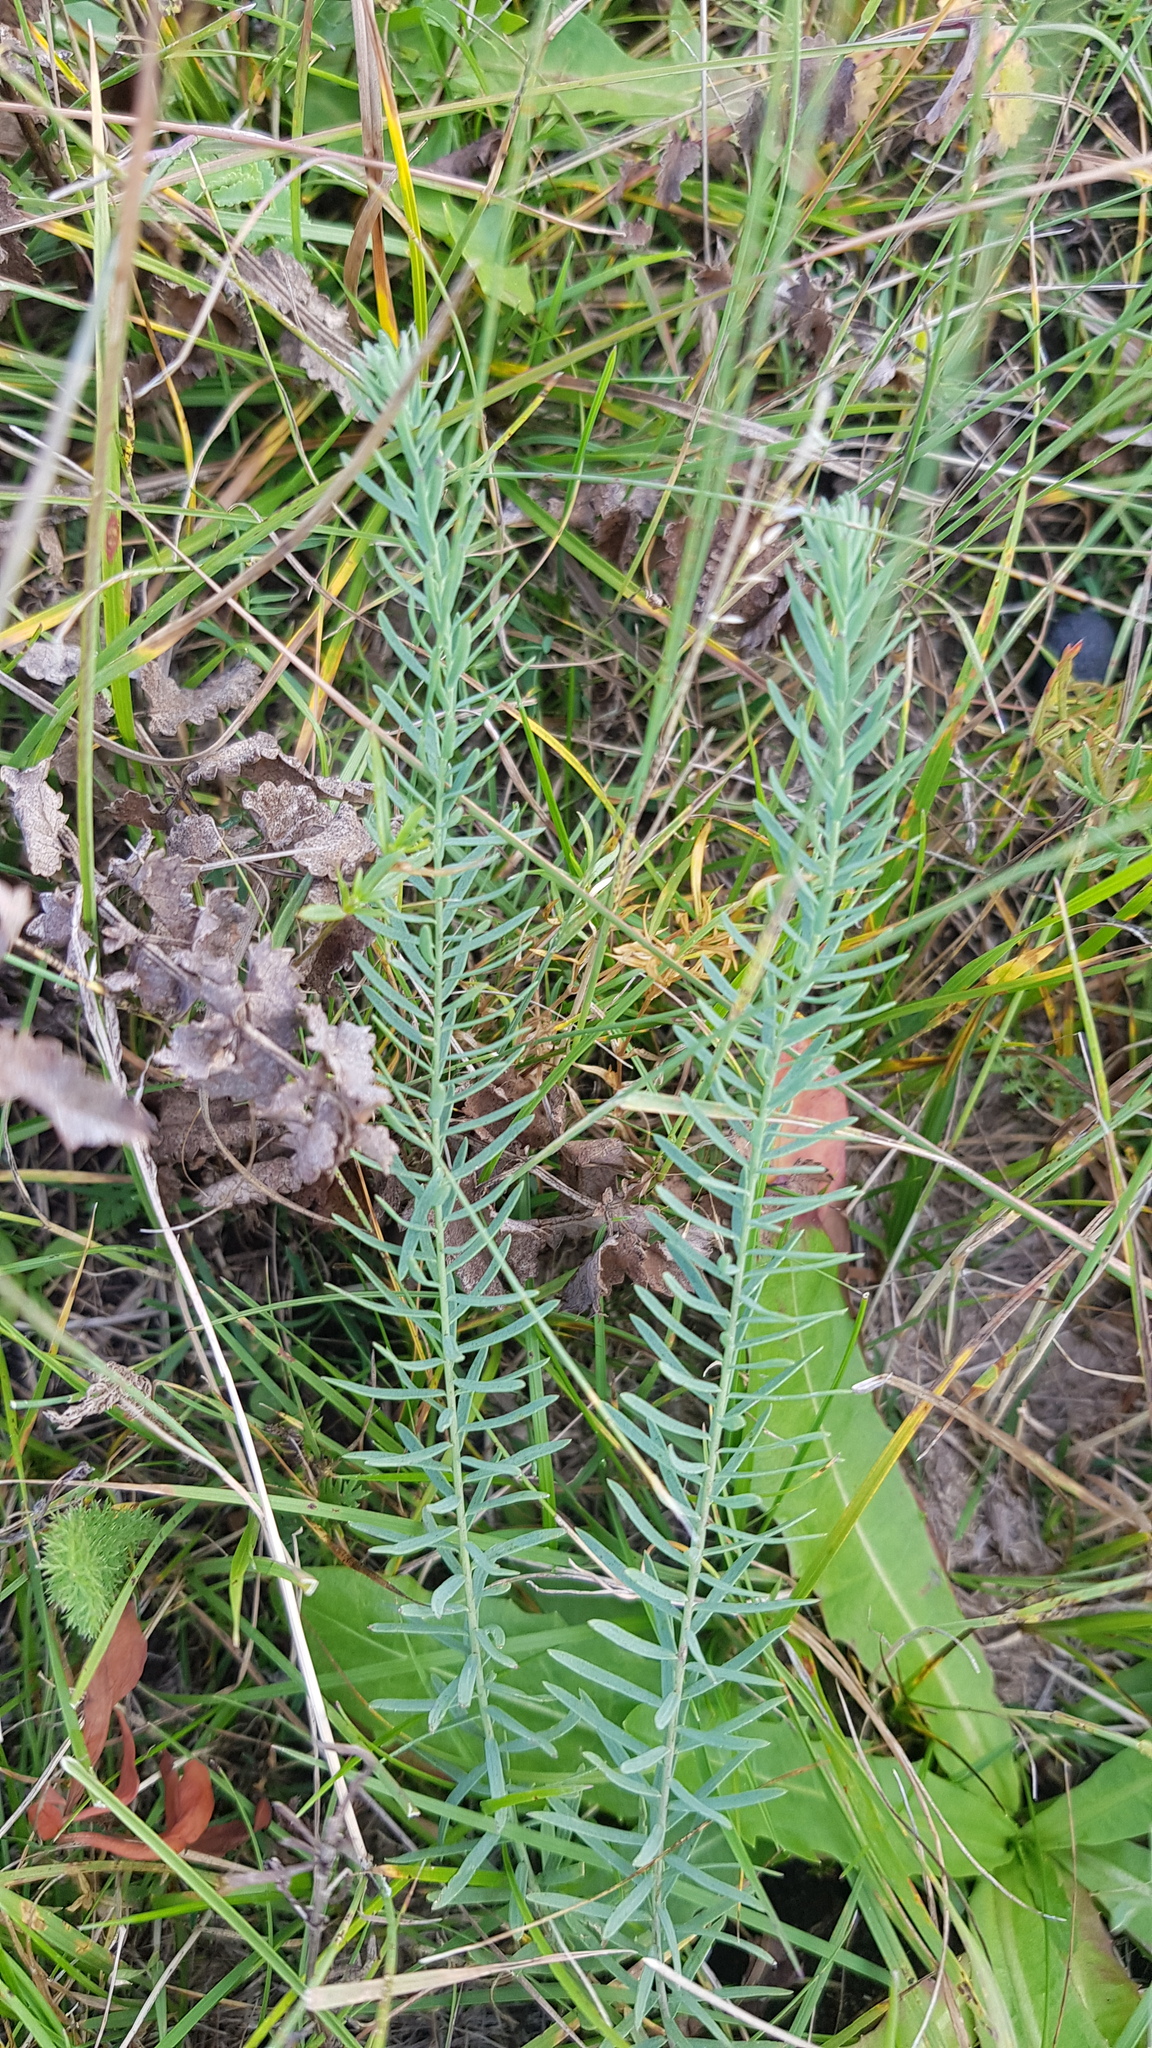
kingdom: Plantae
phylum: Tracheophyta
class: Magnoliopsida
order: Malpighiales
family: Linaceae
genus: Linum
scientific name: Linum perenne
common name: Blue flax
